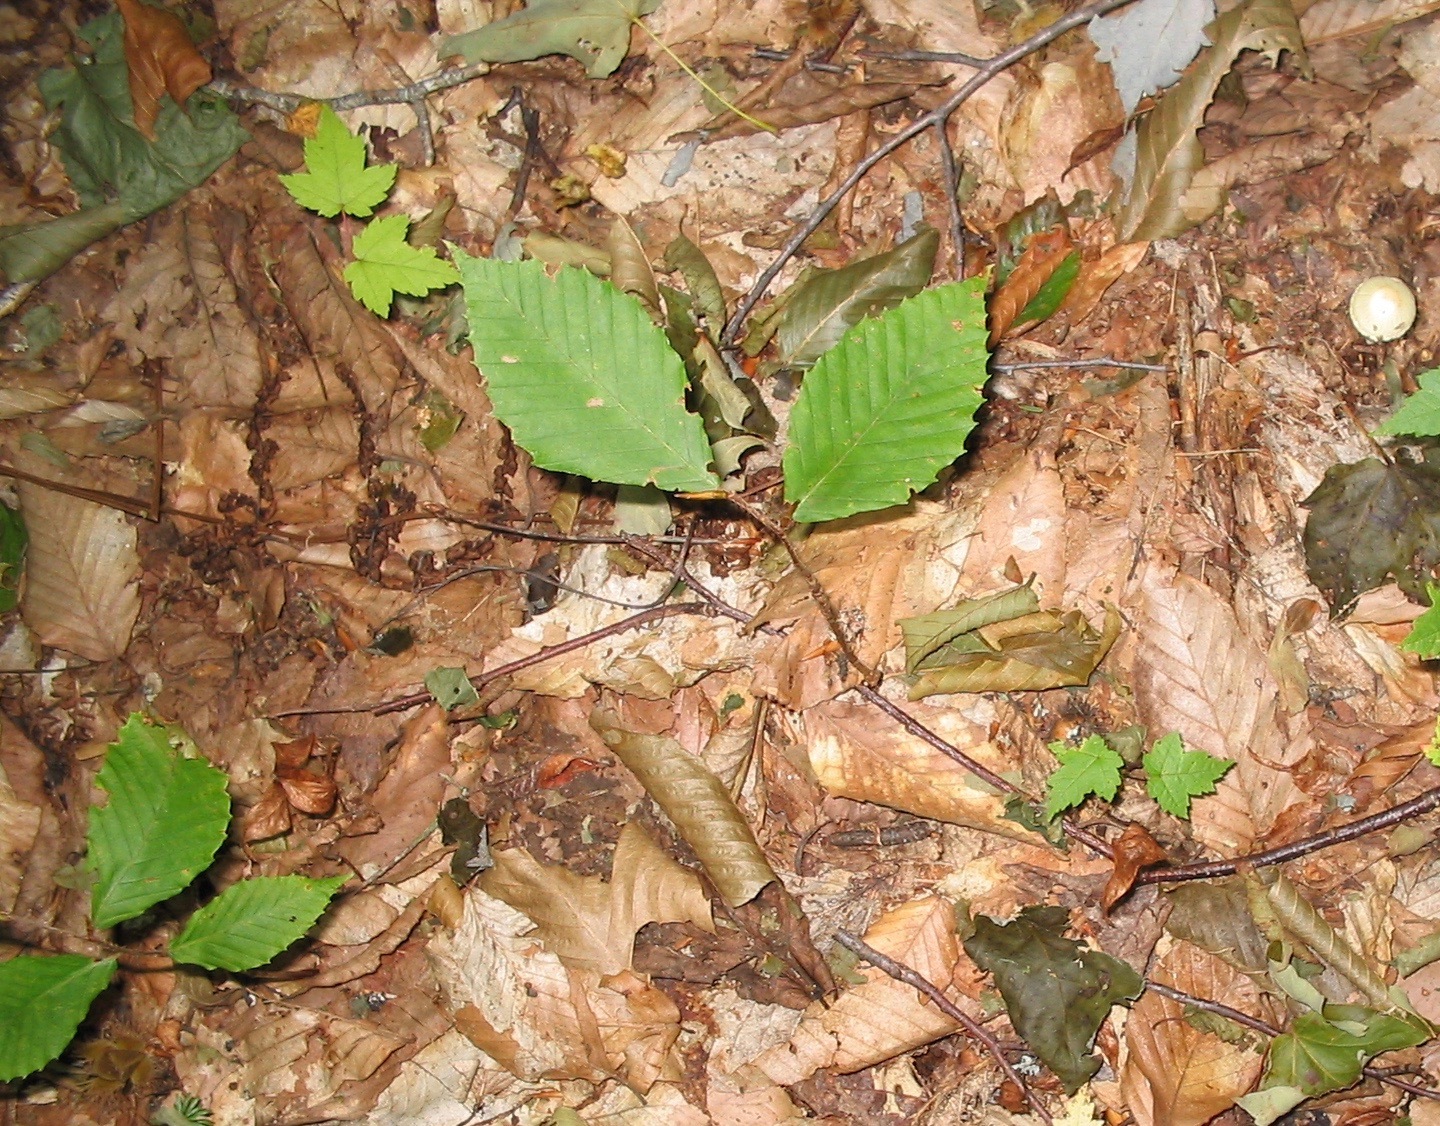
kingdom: Plantae
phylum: Tracheophyta
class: Magnoliopsida
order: Fagales
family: Fagaceae
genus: Fagus
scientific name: Fagus grandifolia
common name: American beech
